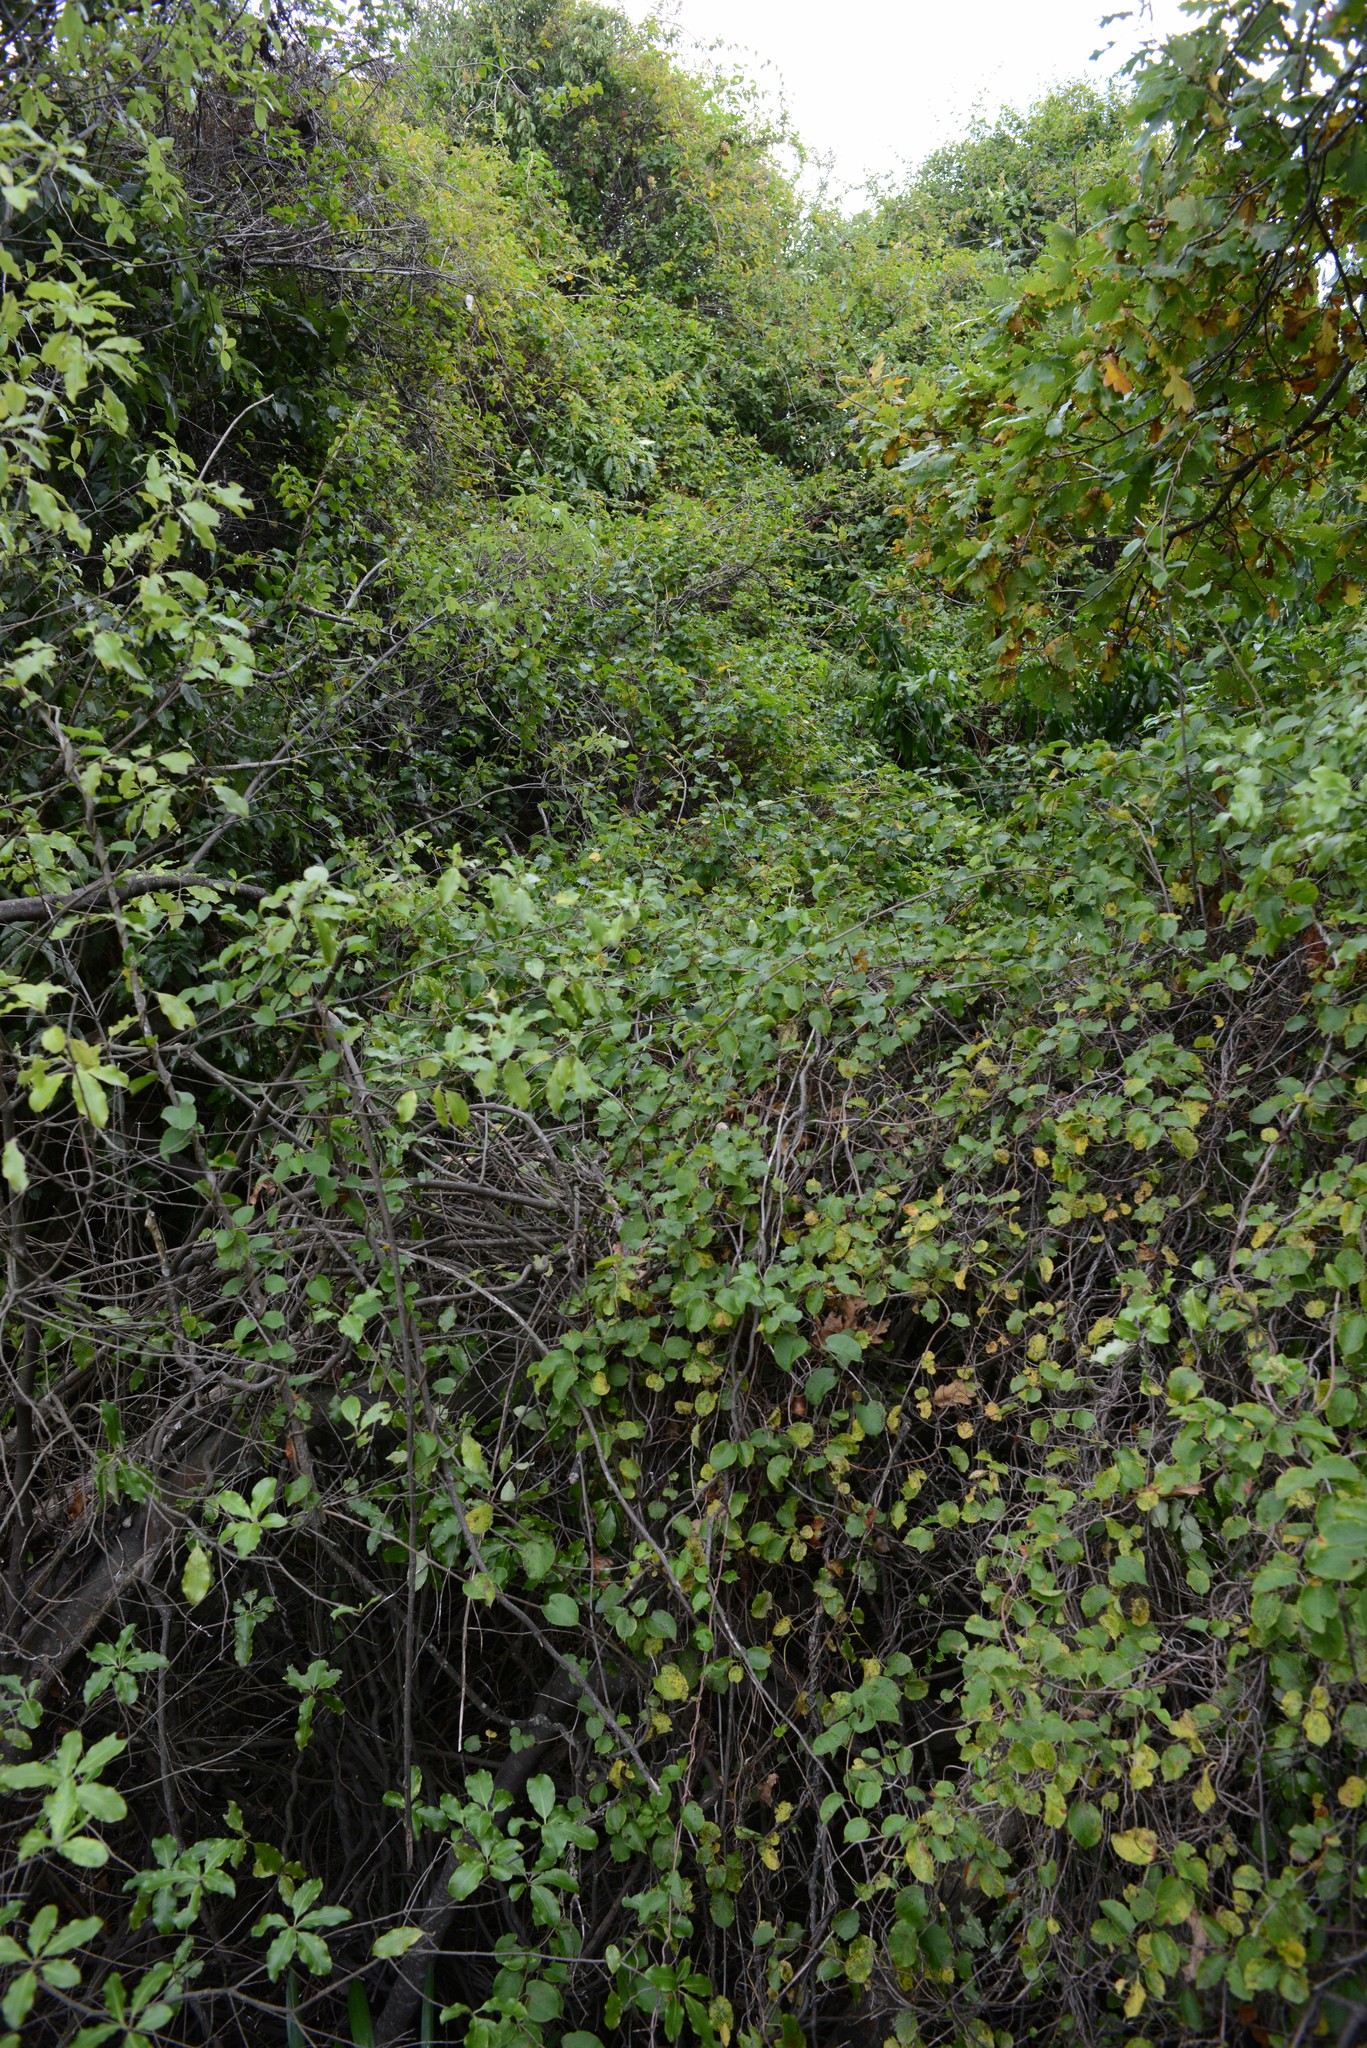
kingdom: Plantae
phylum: Tracheophyta
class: Magnoliopsida
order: Caryophyllales
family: Polygonaceae
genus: Muehlenbeckia
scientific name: Muehlenbeckia australis
